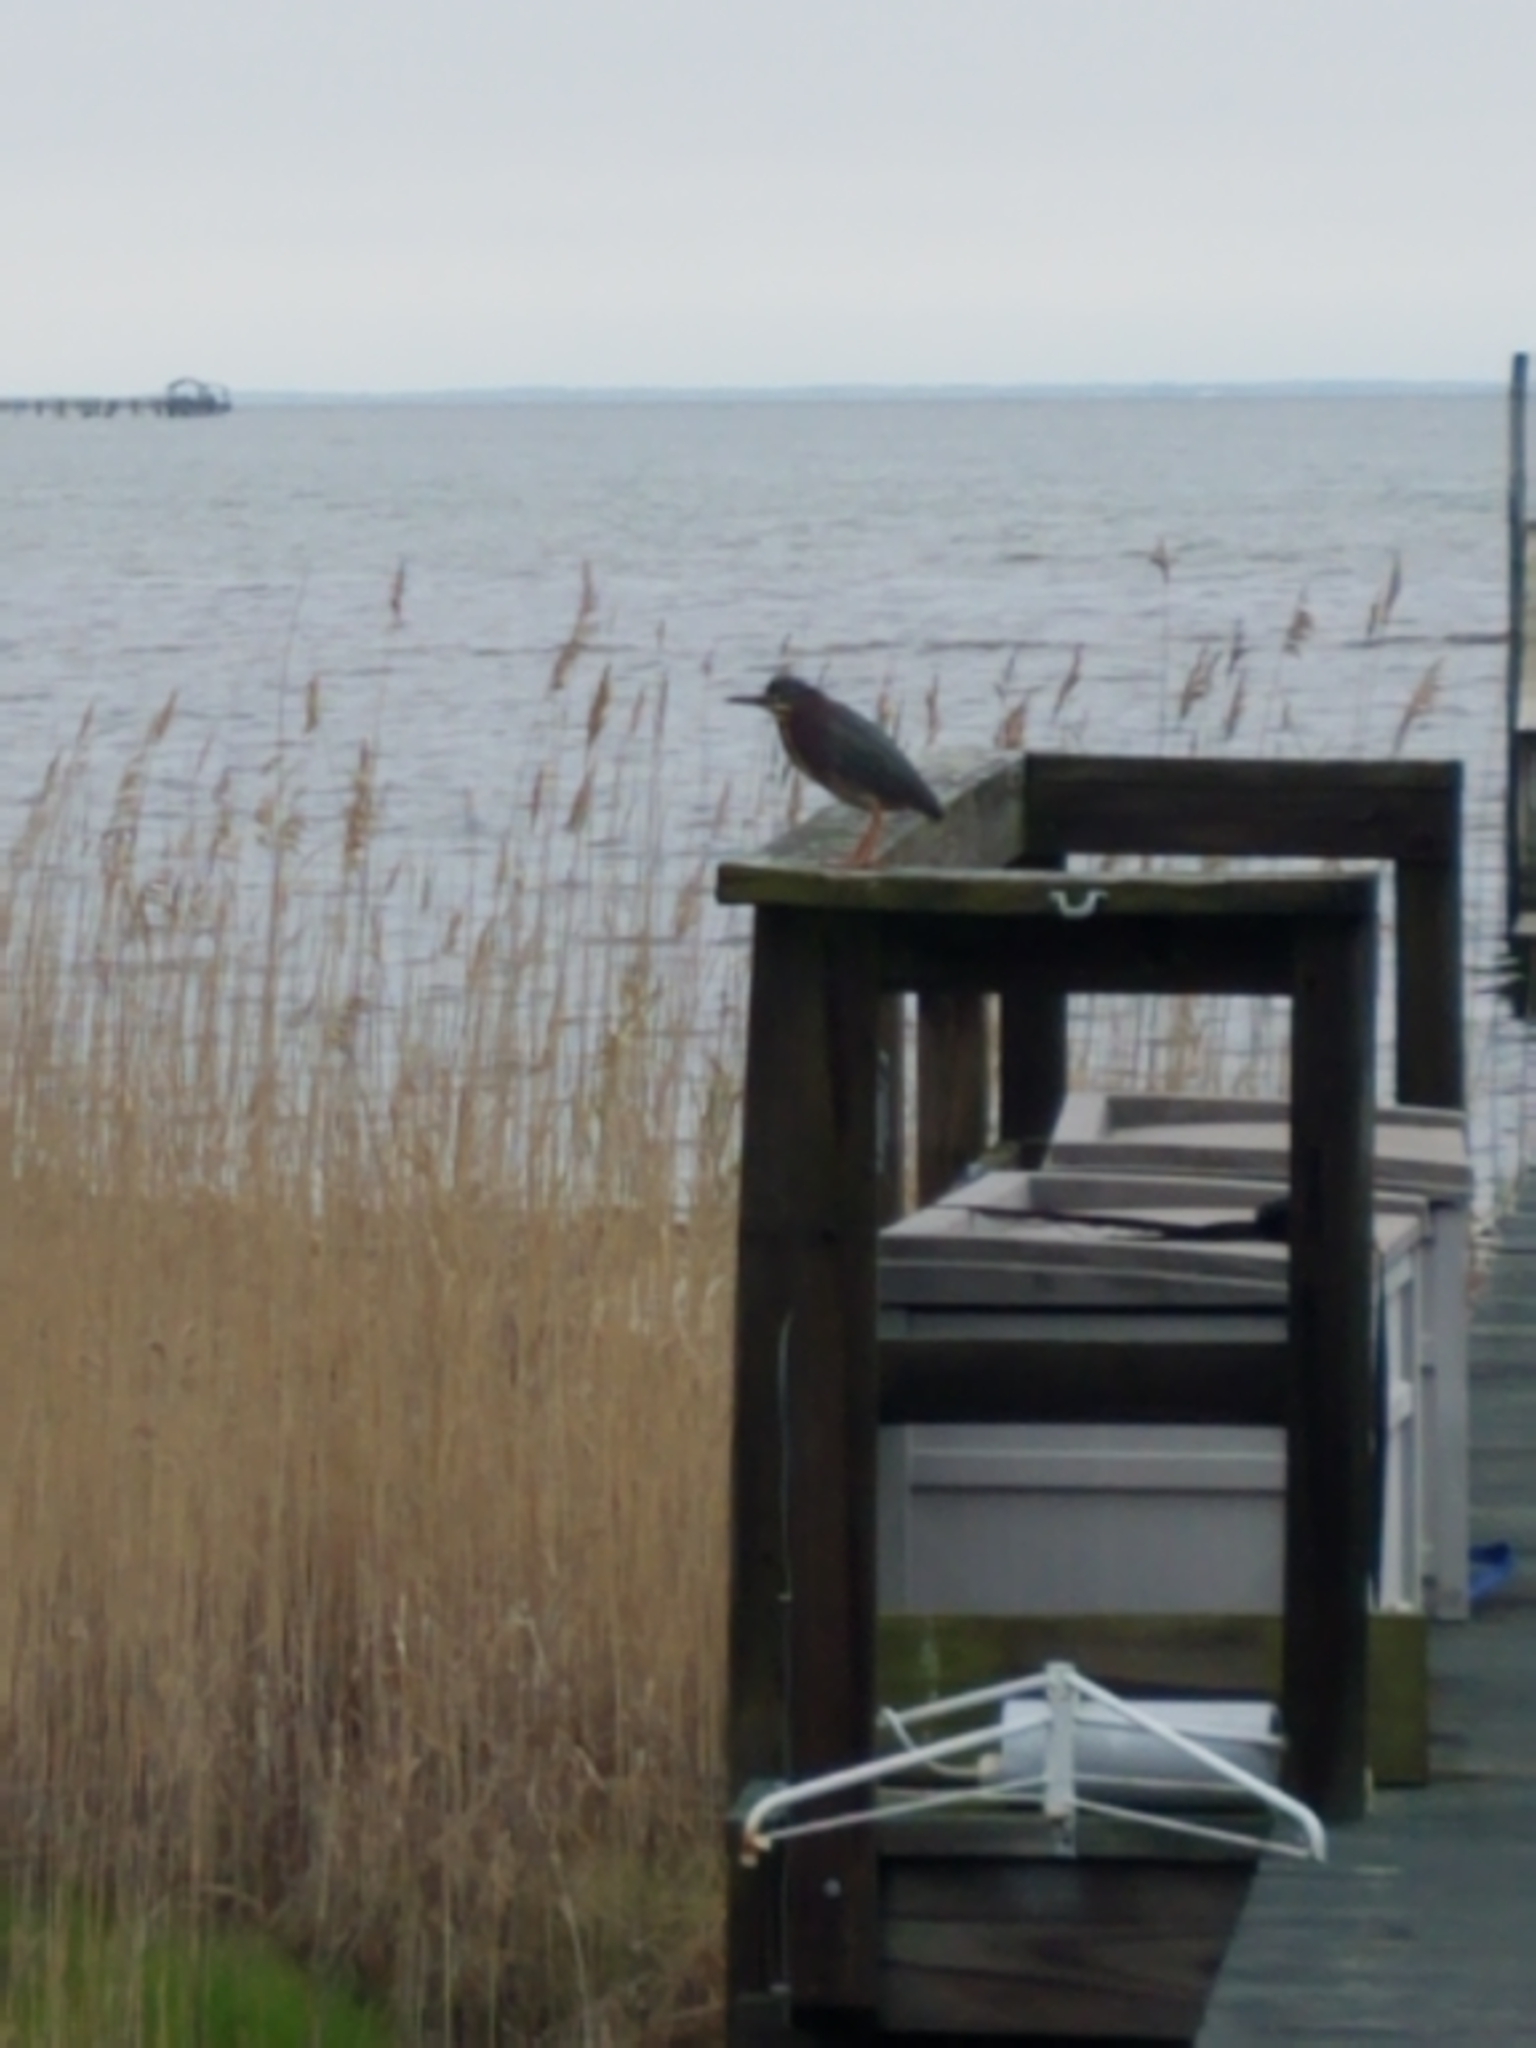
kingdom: Animalia
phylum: Chordata
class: Aves
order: Pelecaniformes
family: Ardeidae
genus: Butorides
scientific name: Butorides virescens
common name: Green heron
